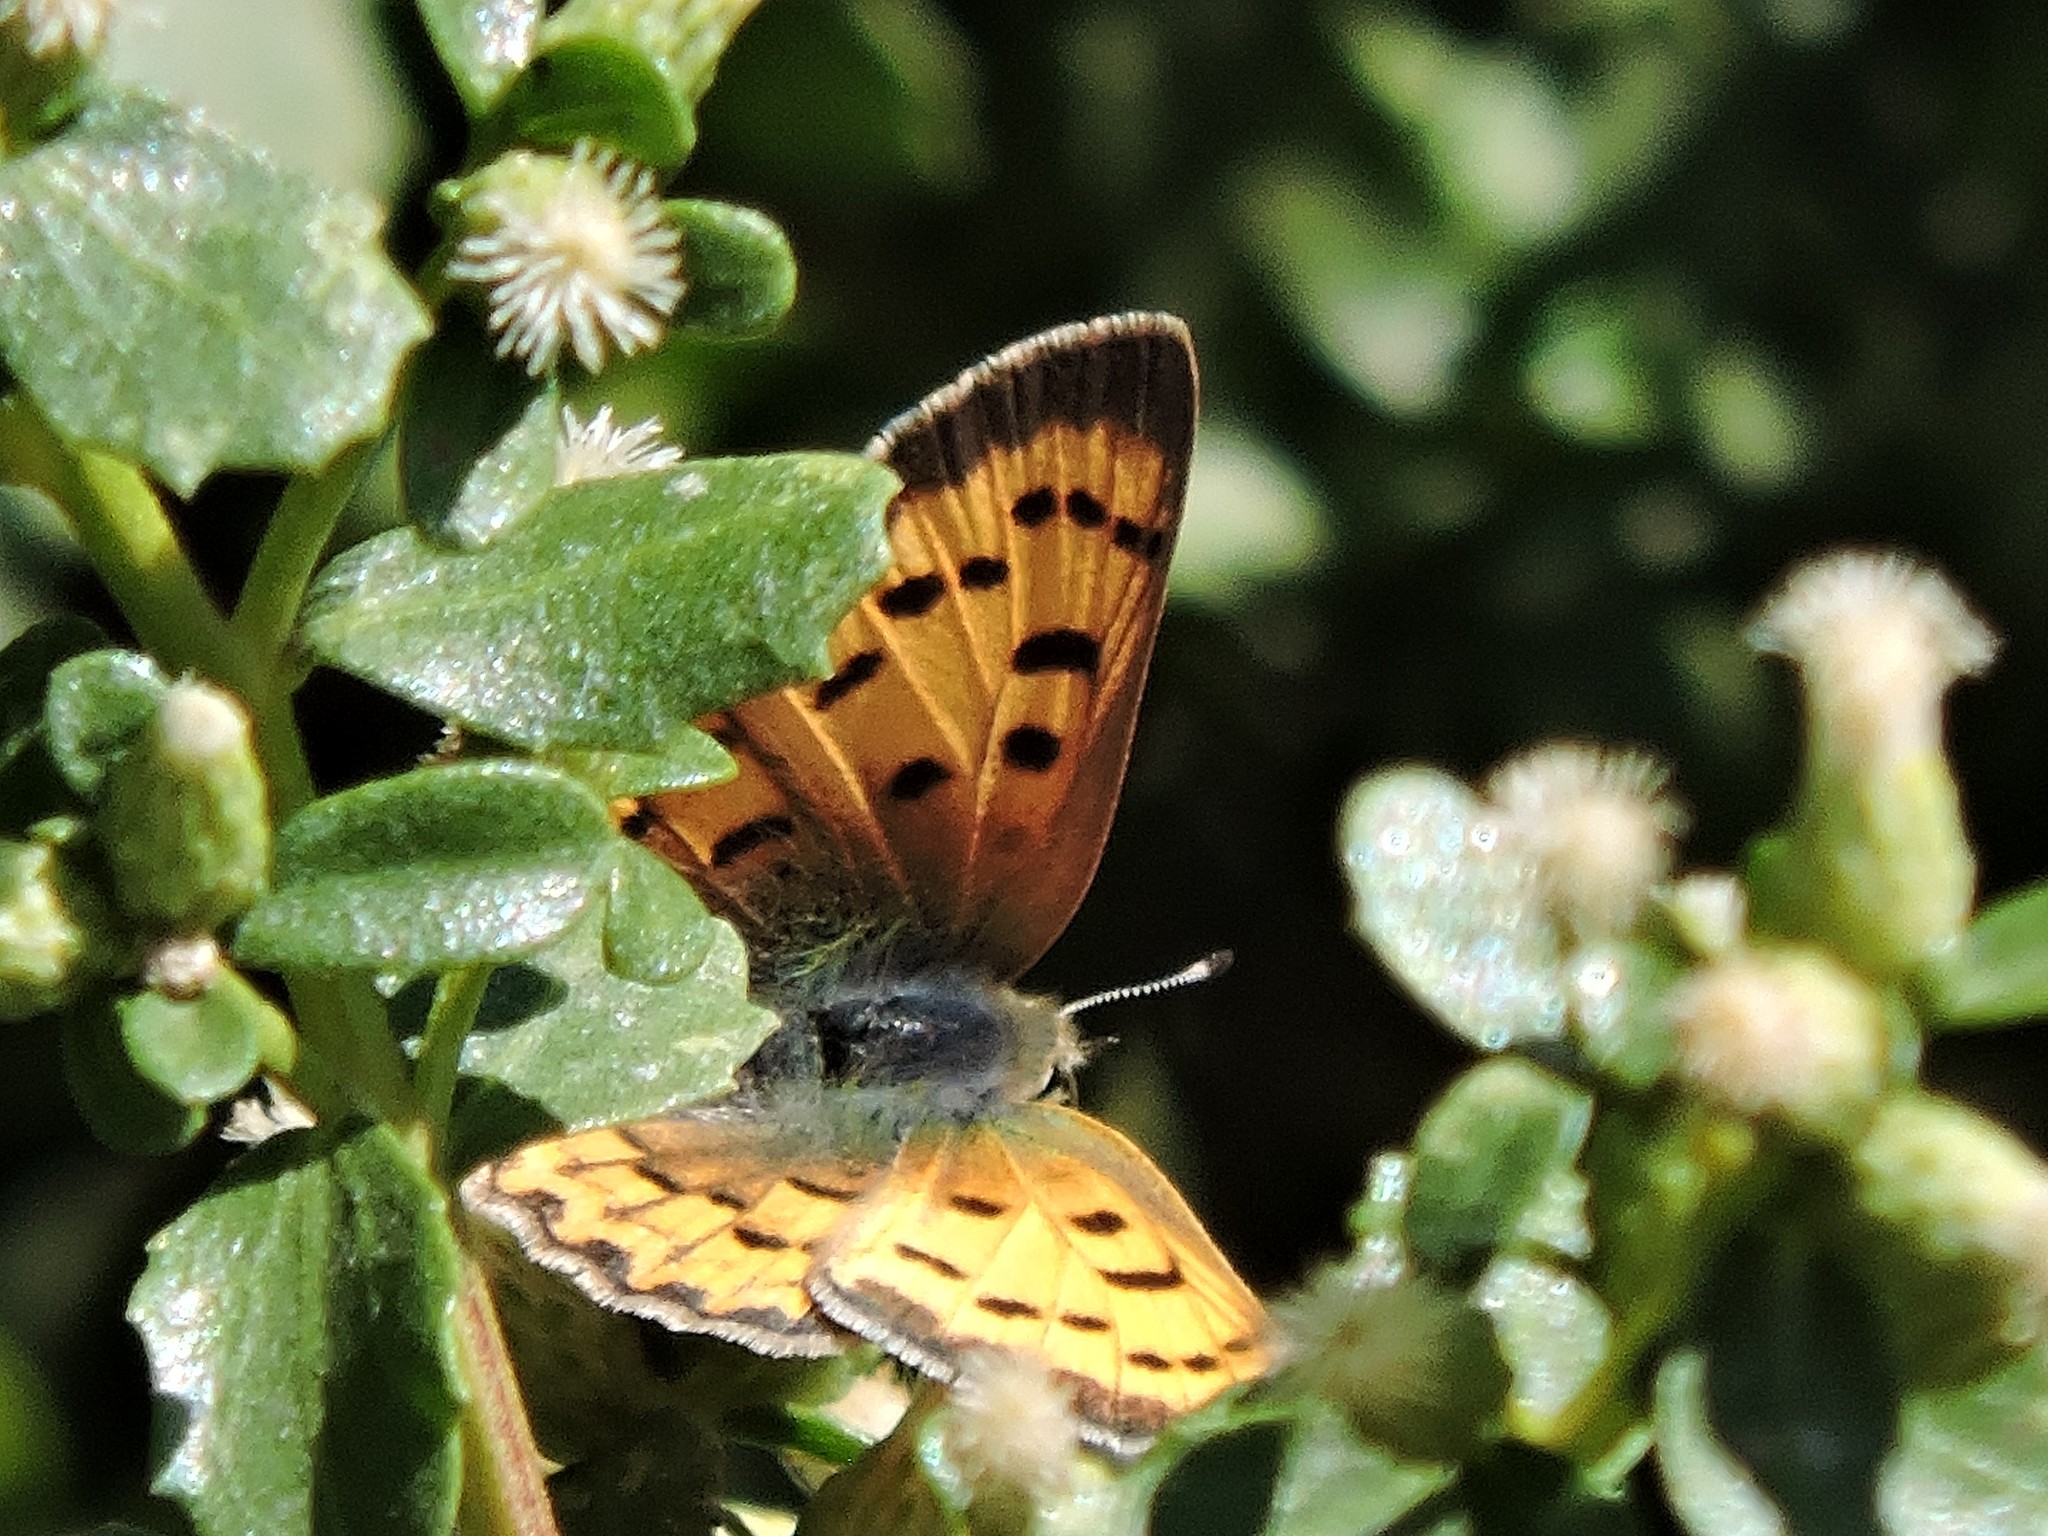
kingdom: Animalia
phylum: Arthropoda
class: Insecta
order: Lepidoptera
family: Lycaenidae
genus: Tharsalea
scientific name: Tharsalea helloides
